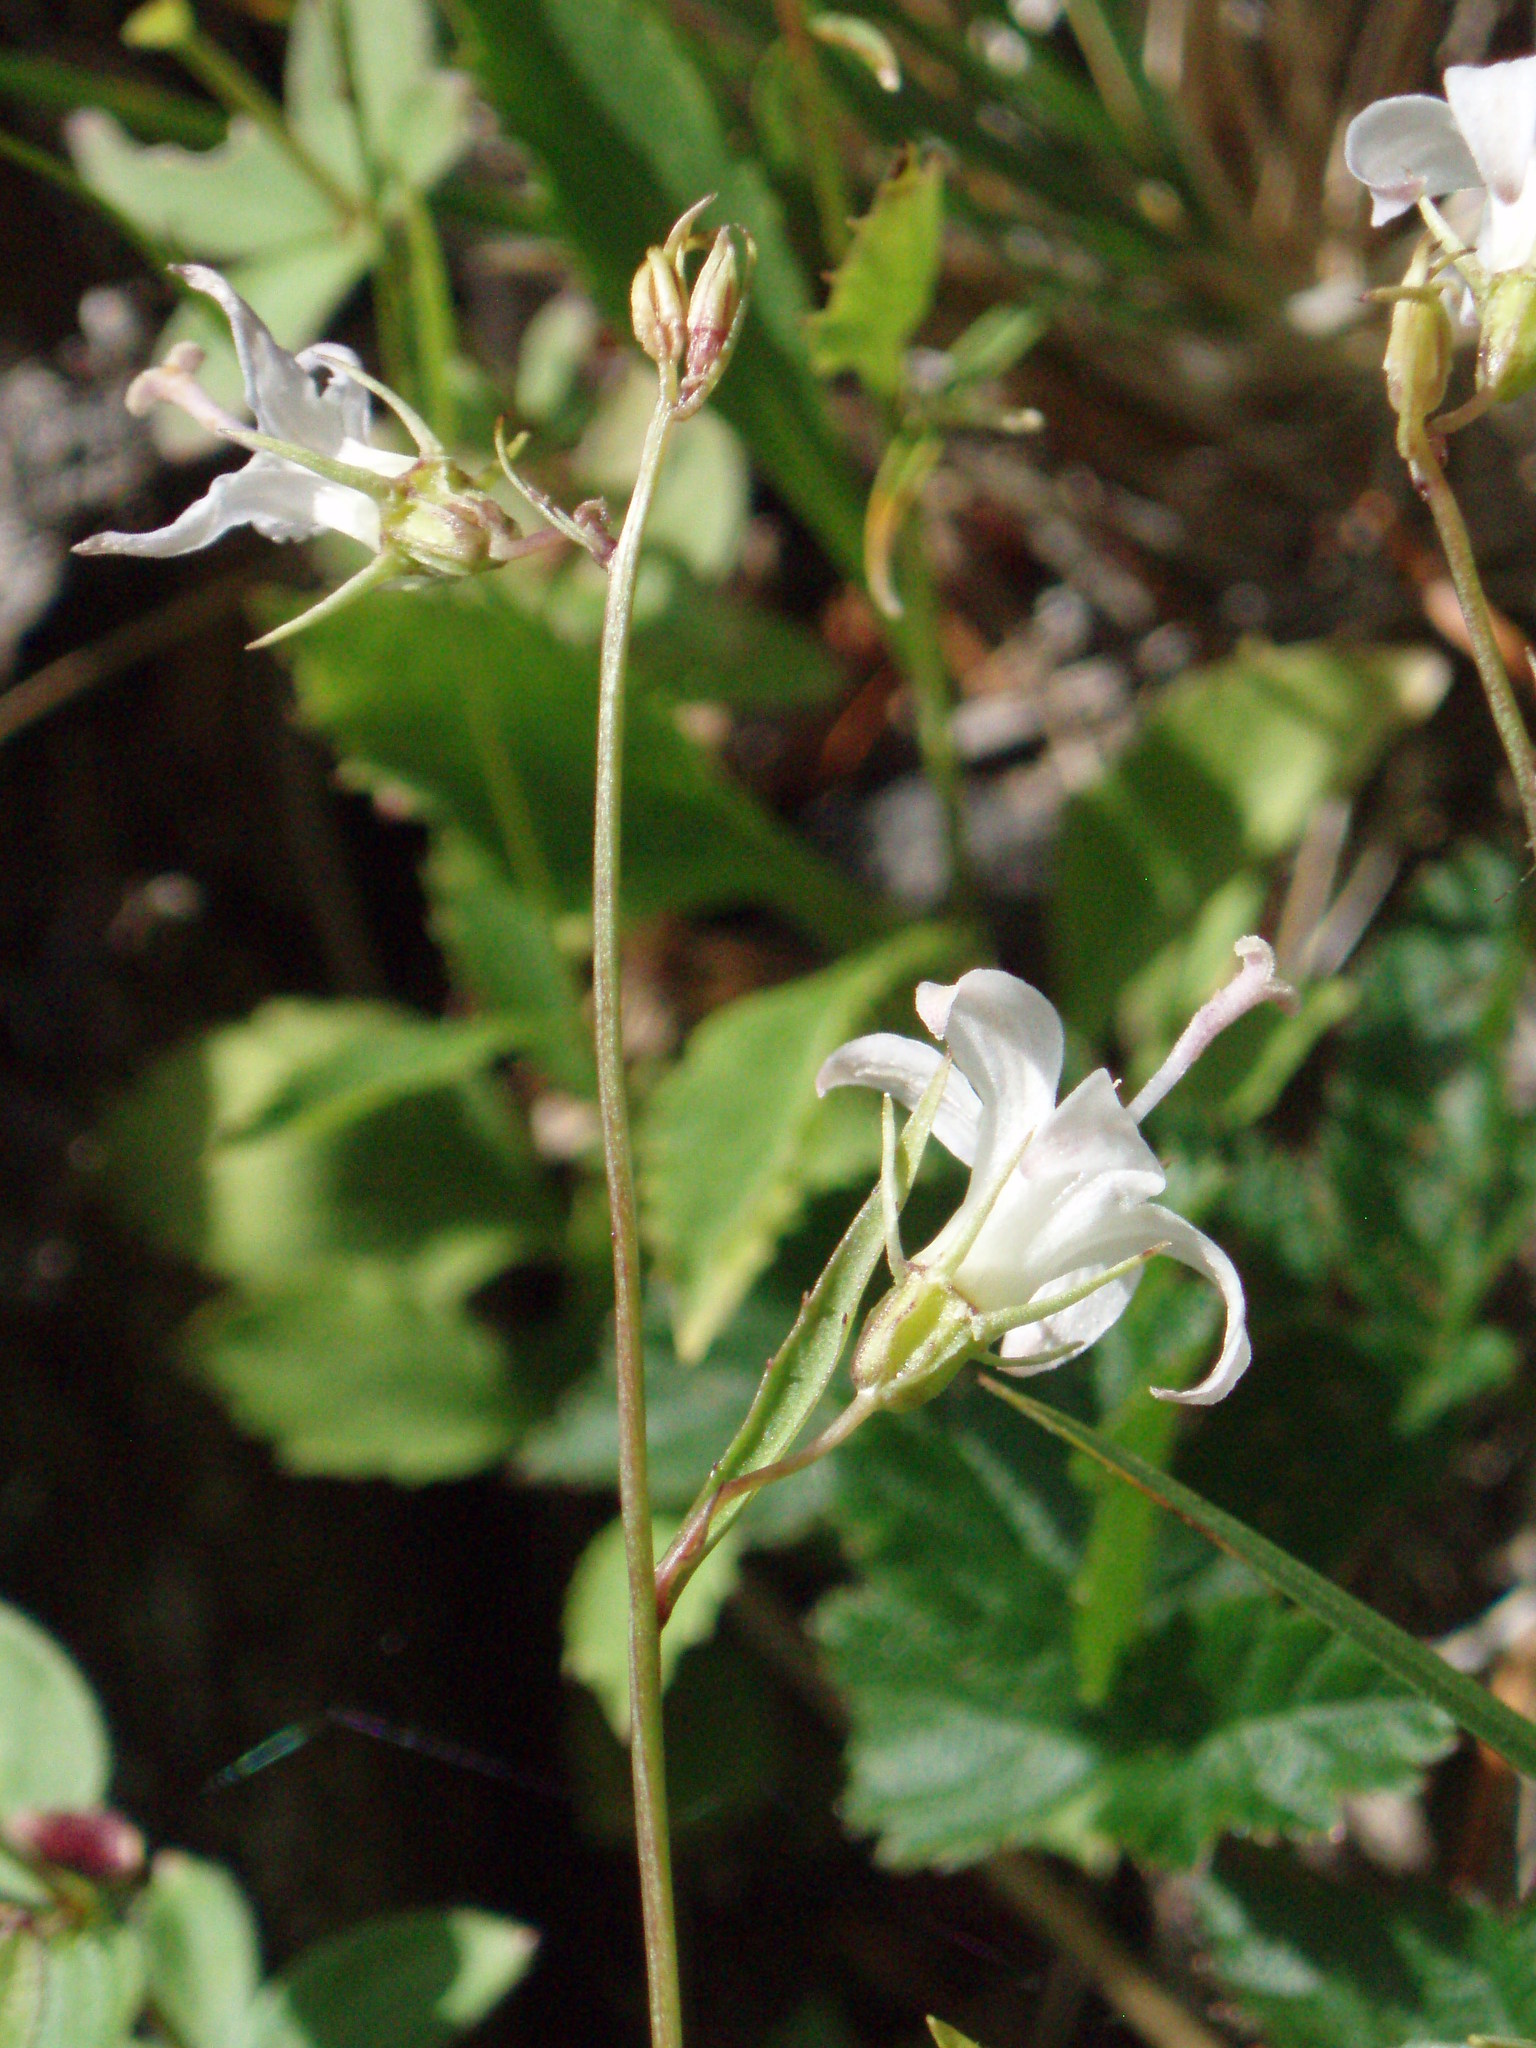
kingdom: Plantae
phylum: Tracheophyta
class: Magnoliopsida
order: Asterales
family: Campanulaceae
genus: Campanula
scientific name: Campanula scouleri
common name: Scouler's harebell
